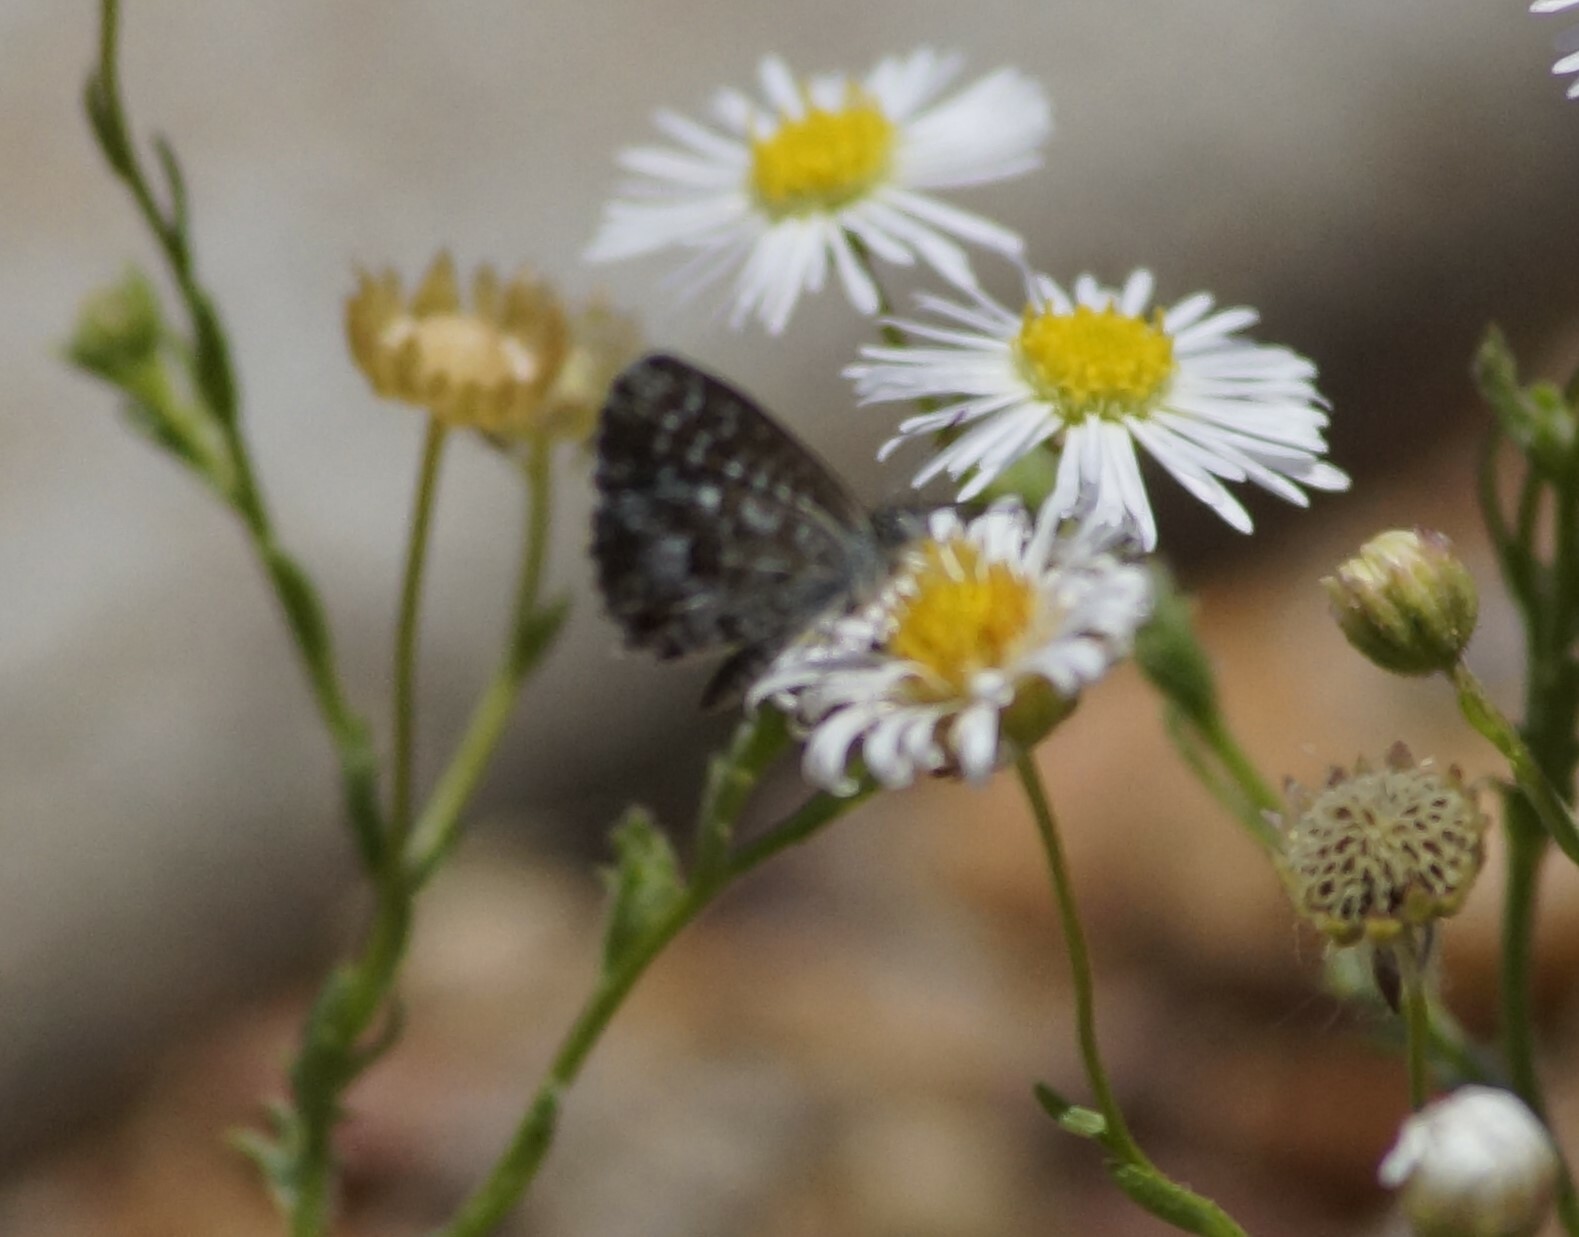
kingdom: Animalia
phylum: Arthropoda
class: Insecta
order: Lepidoptera
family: Lycaenidae
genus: Theclinesthes
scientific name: Theclinesthes serpentata
